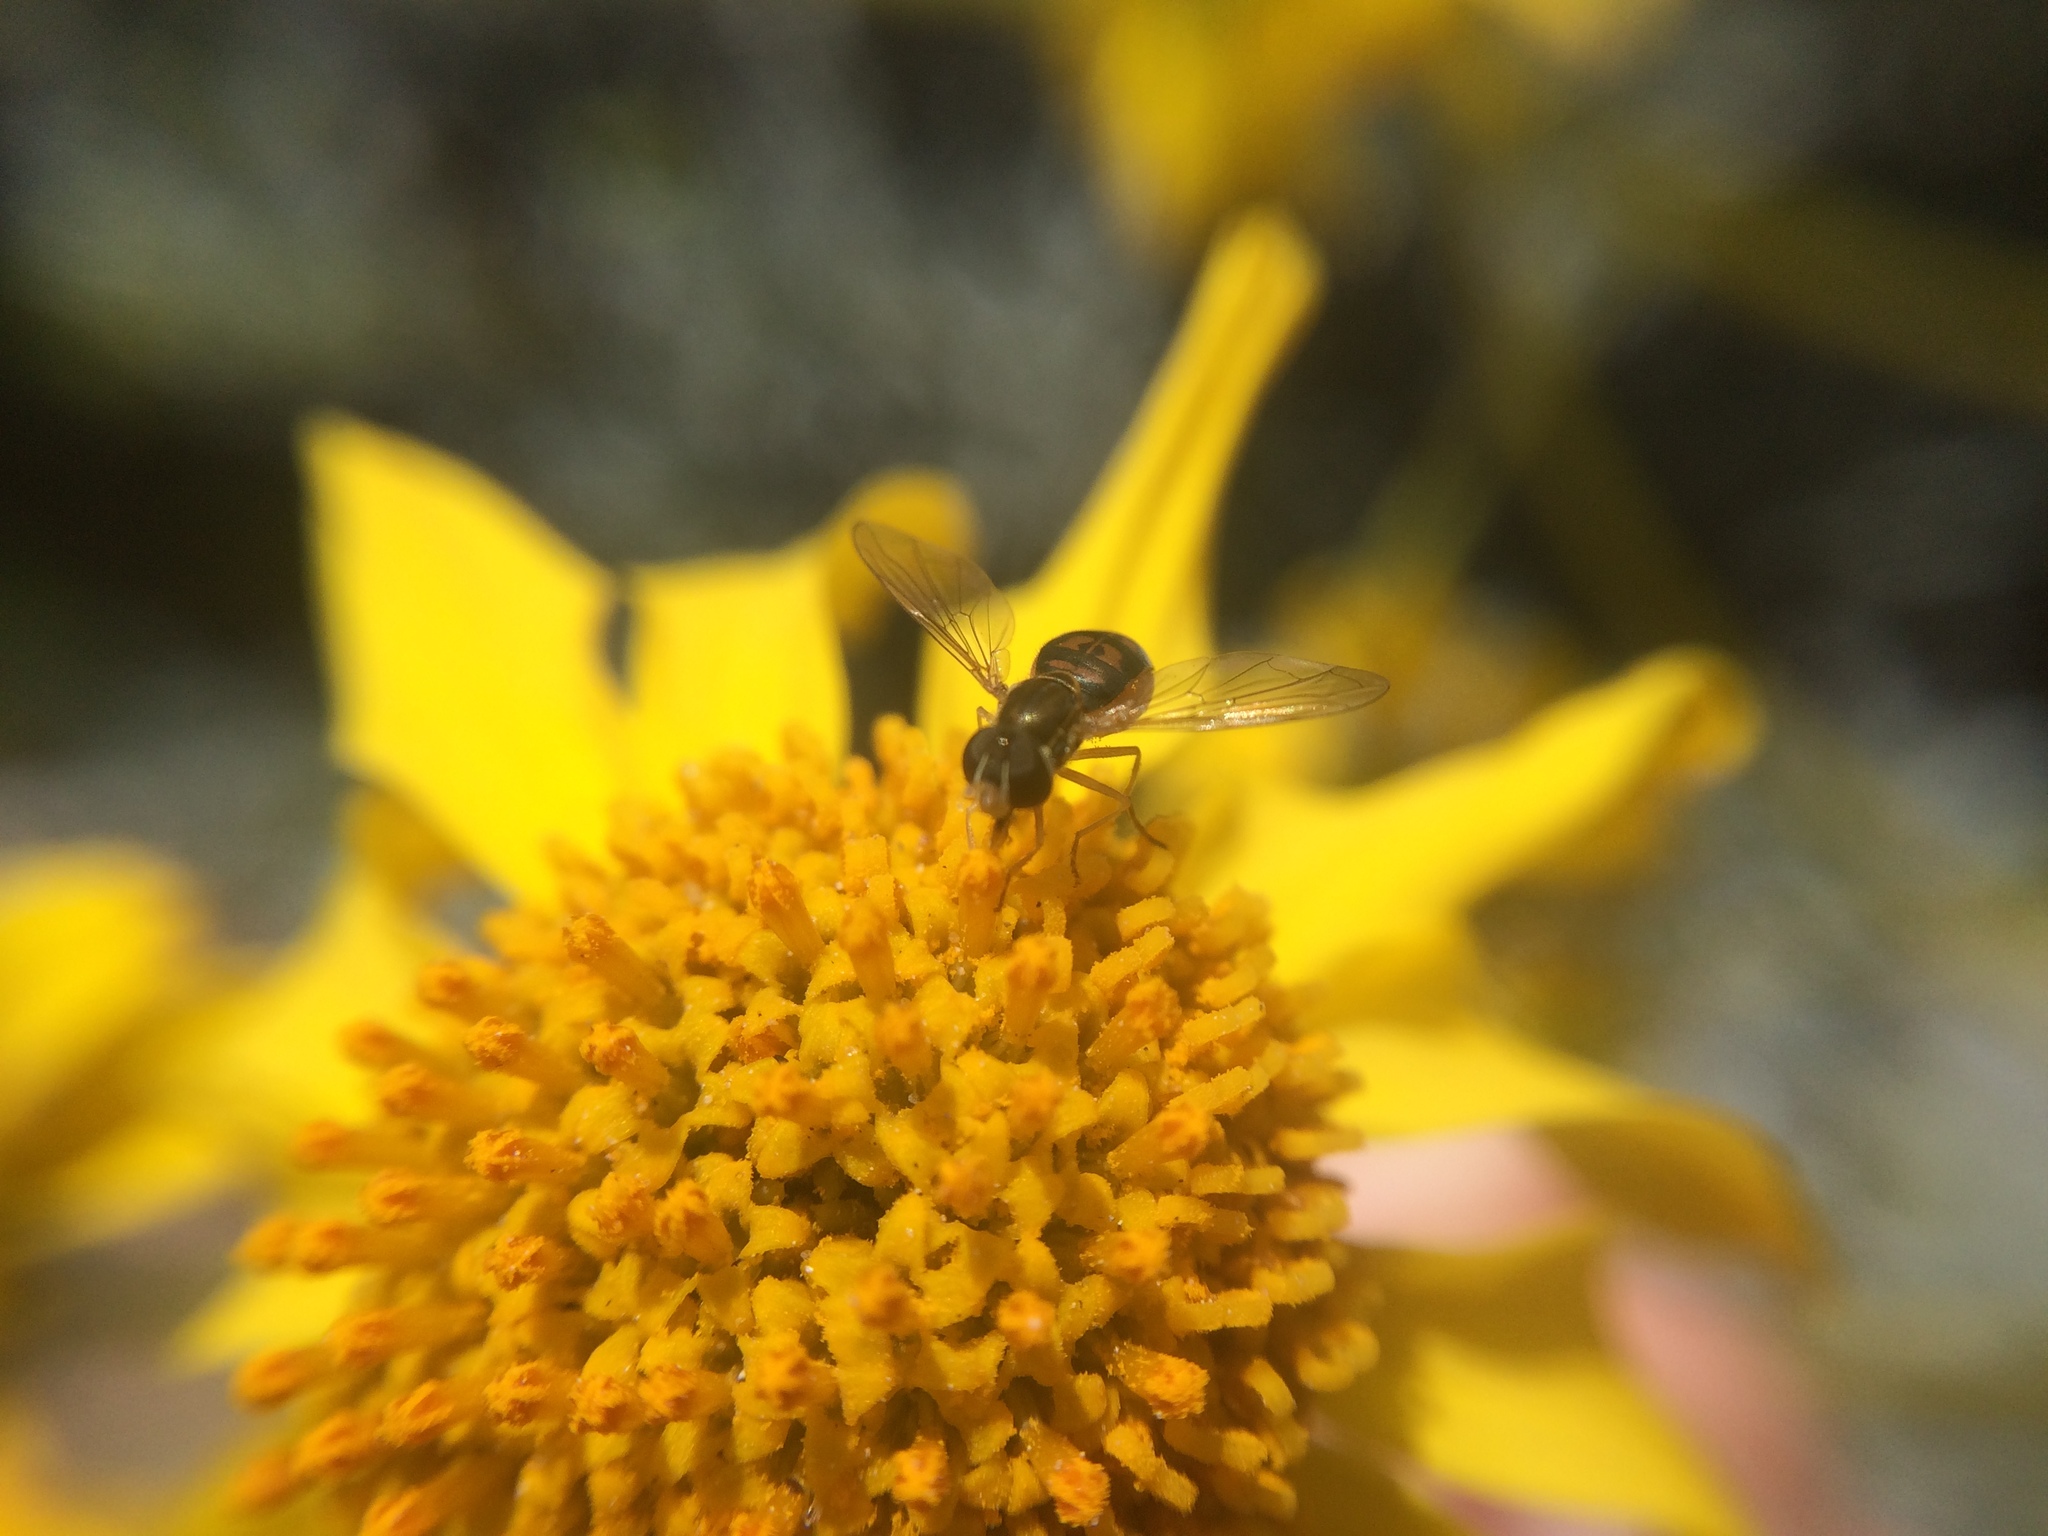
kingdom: Animalia
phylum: Arthropoda
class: Insecta
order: Diptera
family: Syrphidae
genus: Toxomerus
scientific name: Toxomerus marginatus
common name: Syrphid fly
